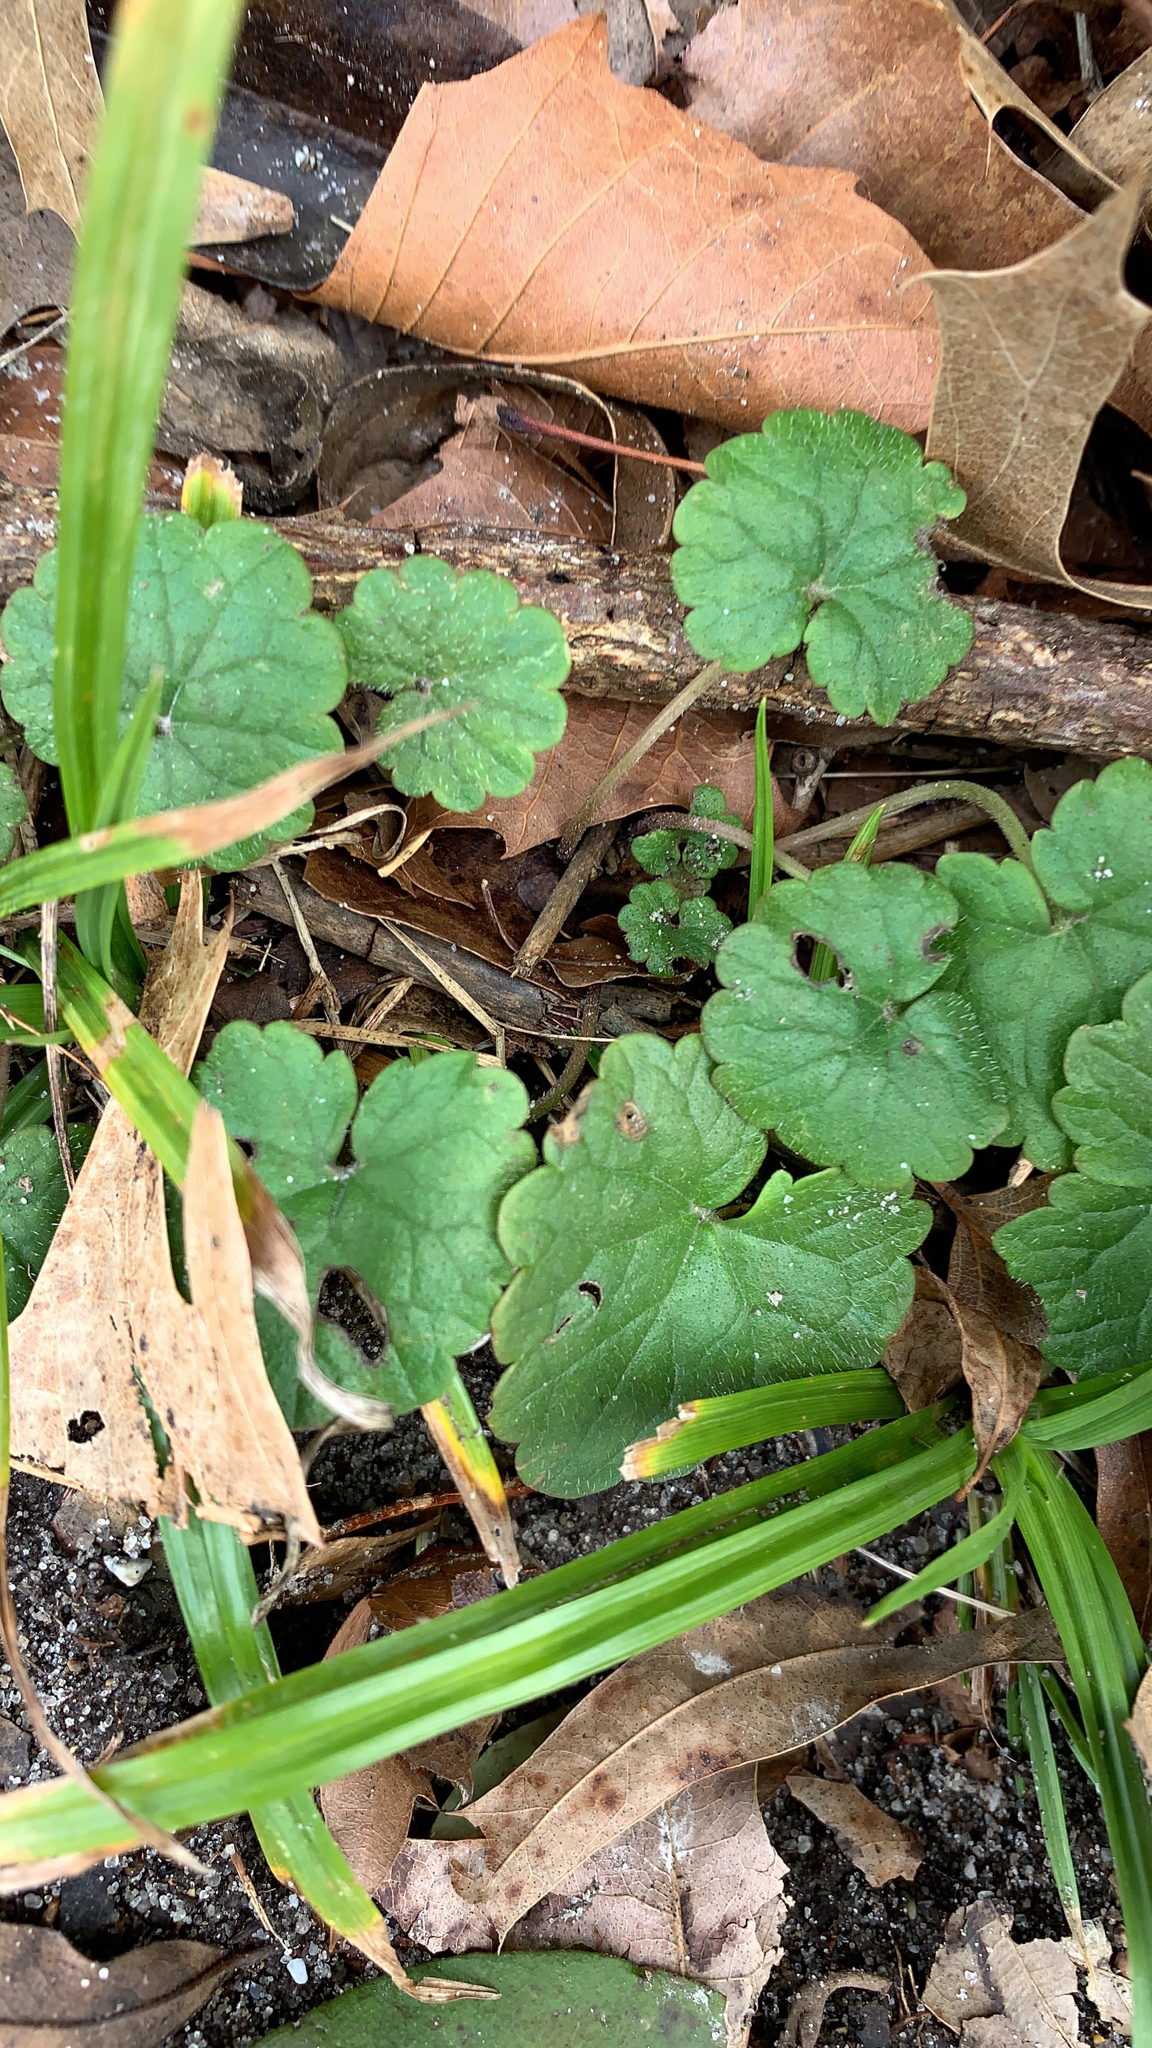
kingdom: Plantae
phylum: Tracheophyta
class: Magnoliopsida
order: Lamiales
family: Lamiaceae
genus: Glechoma
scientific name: Glechoma hederacea
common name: Ground ivy
